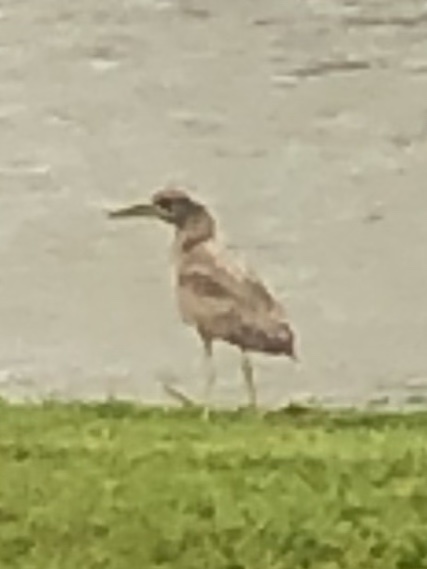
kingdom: Animalia
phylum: Chordata
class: Aves
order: Pelecaniformes
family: Ardeidae
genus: Nycticorax
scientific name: Nycticorax nycticorax
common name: Black-crowned night heron
